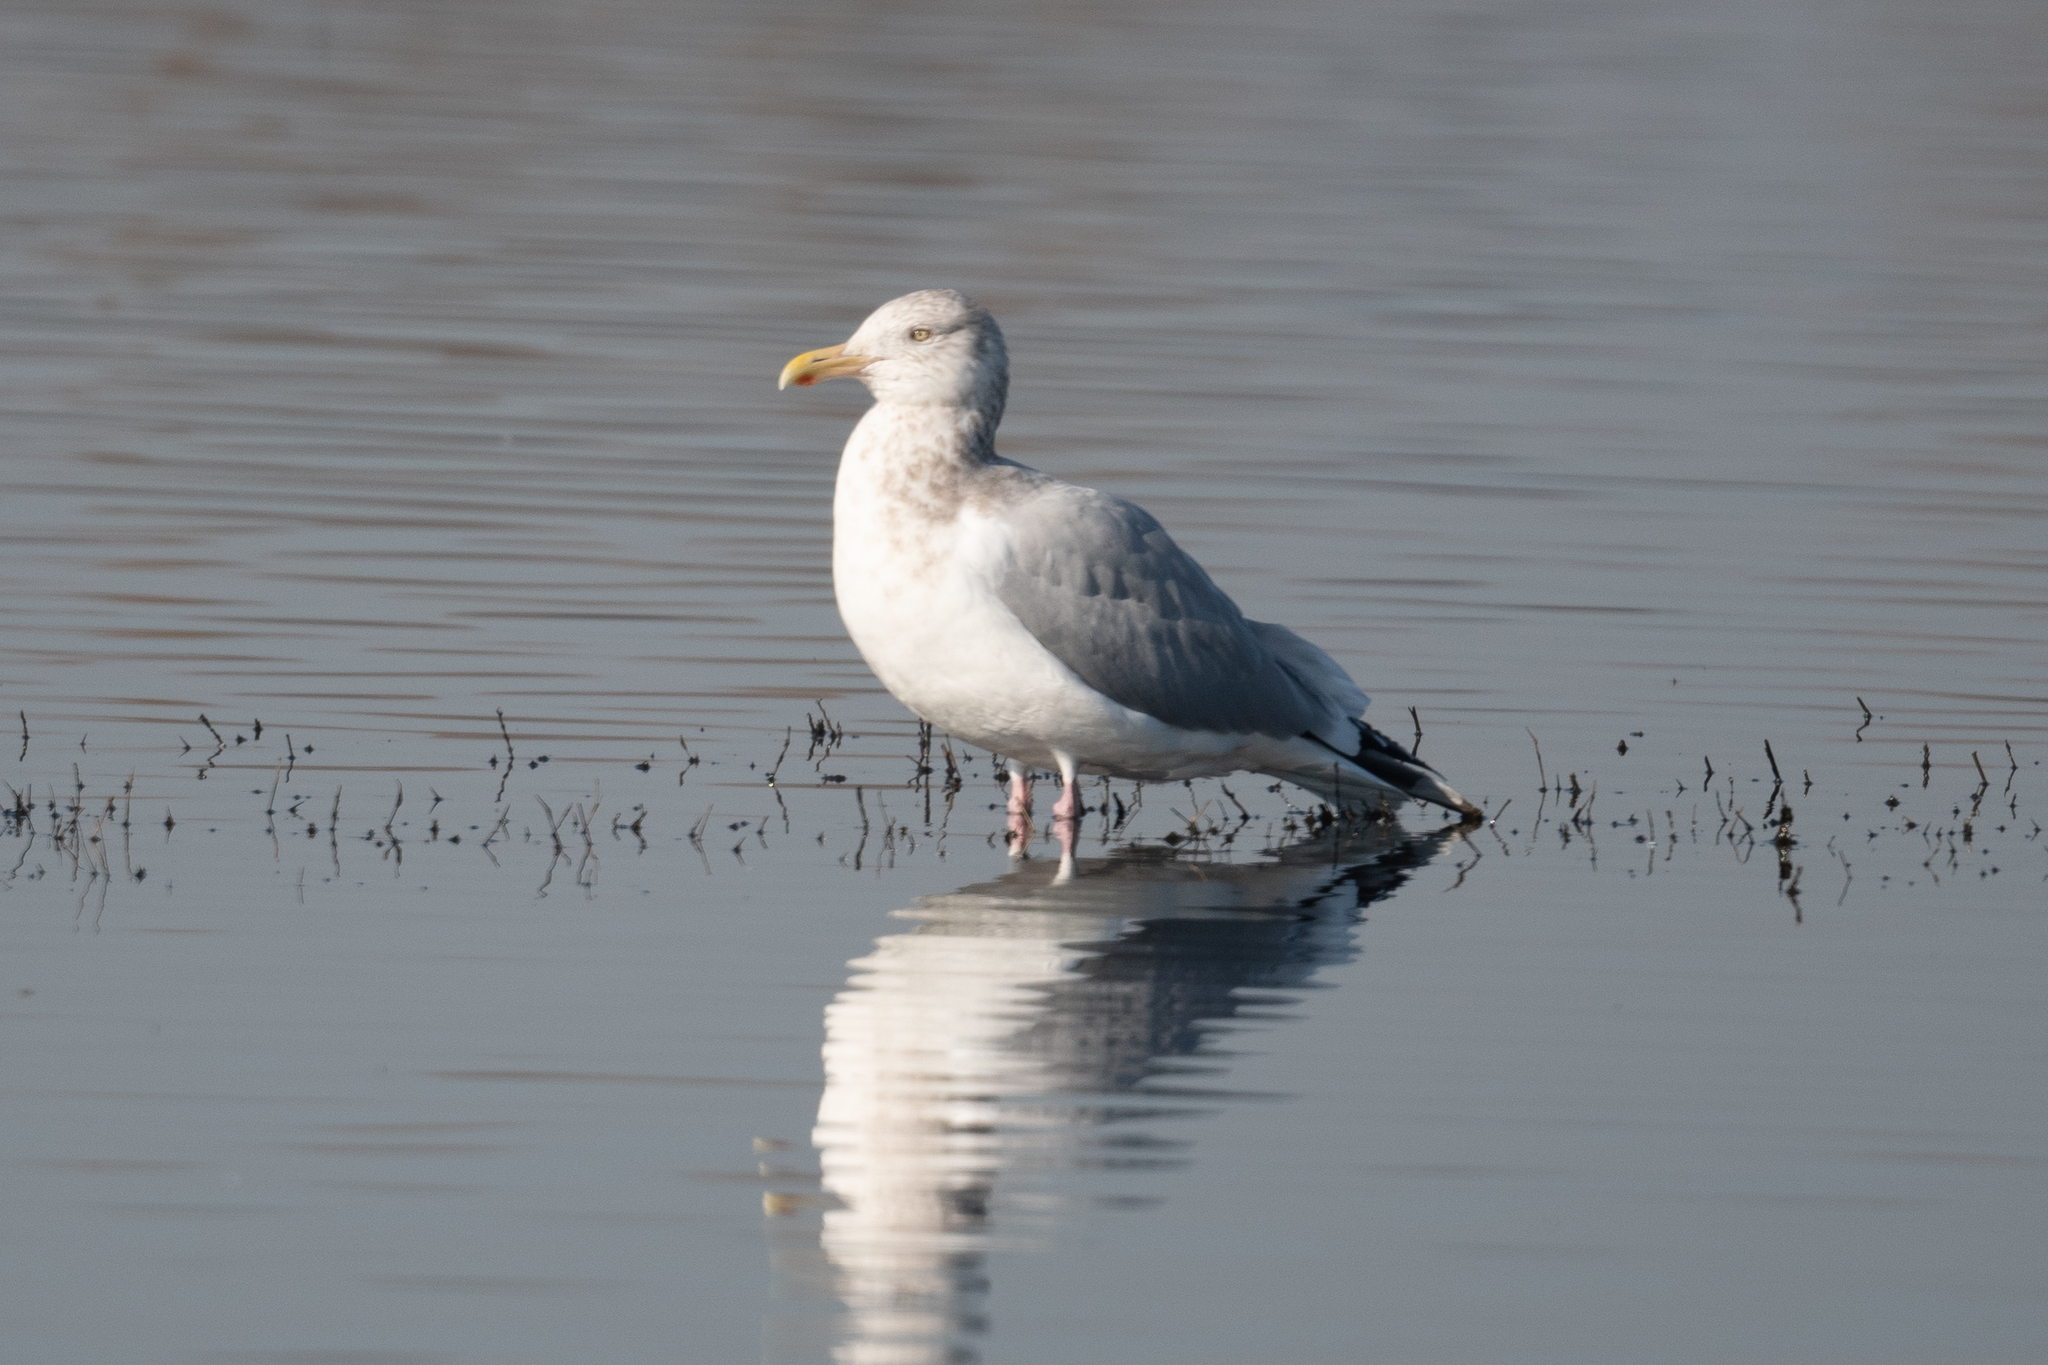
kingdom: Animalia
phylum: Chordata
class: Aves
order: Charadriiformes
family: Laridae
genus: Larus
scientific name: Larus argentatus
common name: Herring gull
